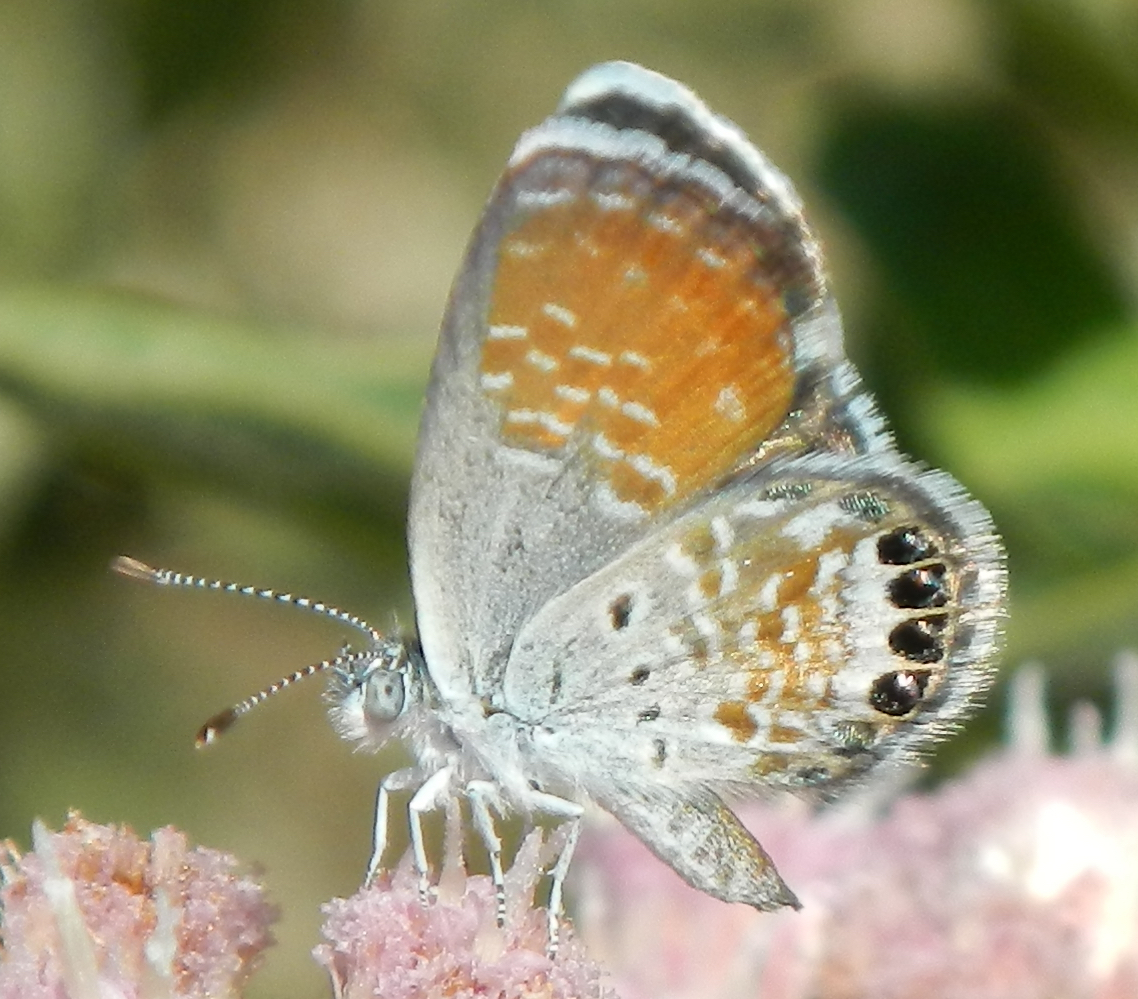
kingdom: Animalia
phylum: Arthropoda
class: Insecta
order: Lepidoptera
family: Lycaenidae
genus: Brephidium
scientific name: Brephidium exilis
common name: Pygmy blue
